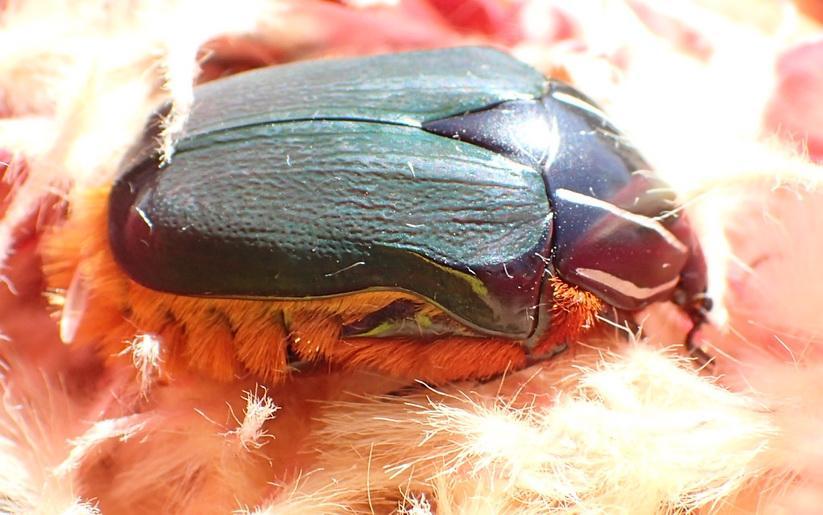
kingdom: Animalia
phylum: Arthropoda
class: Insecta
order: Coleoptera
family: Scarabaeidae
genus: Trichostetha
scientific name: Trichostetha fascicularis
